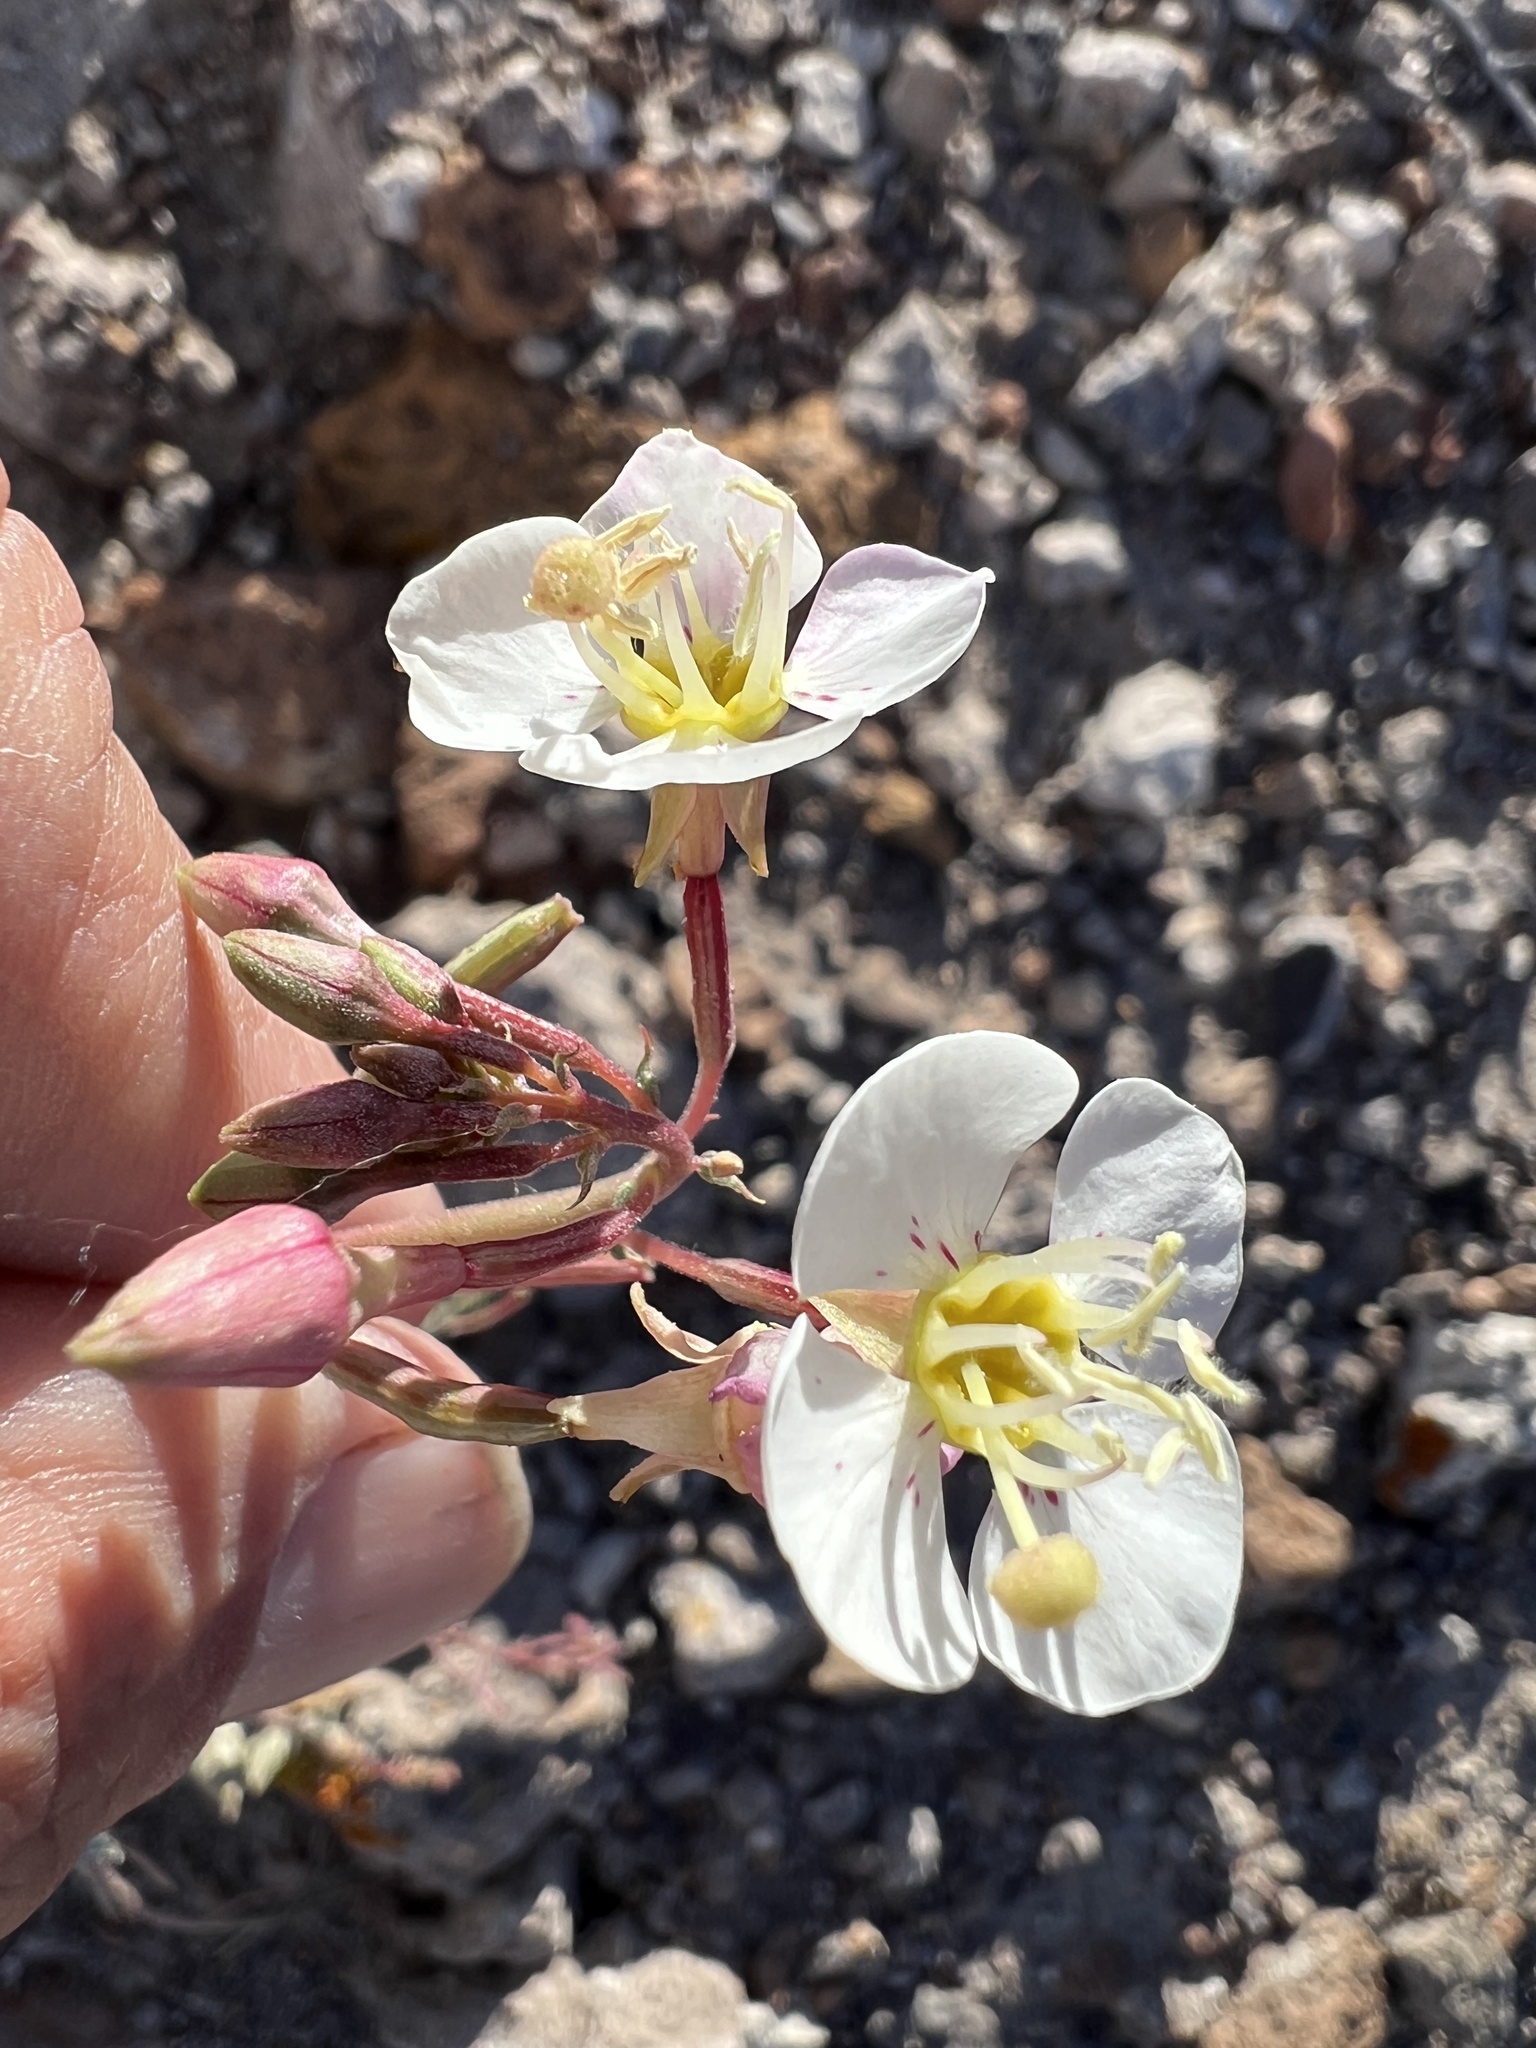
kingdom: Plantae
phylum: Tracheophyta
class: Magnoliopsida
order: Myrtales
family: Onagraceae
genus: Chylismia
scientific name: Chylismia claviformis
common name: Browneyes
